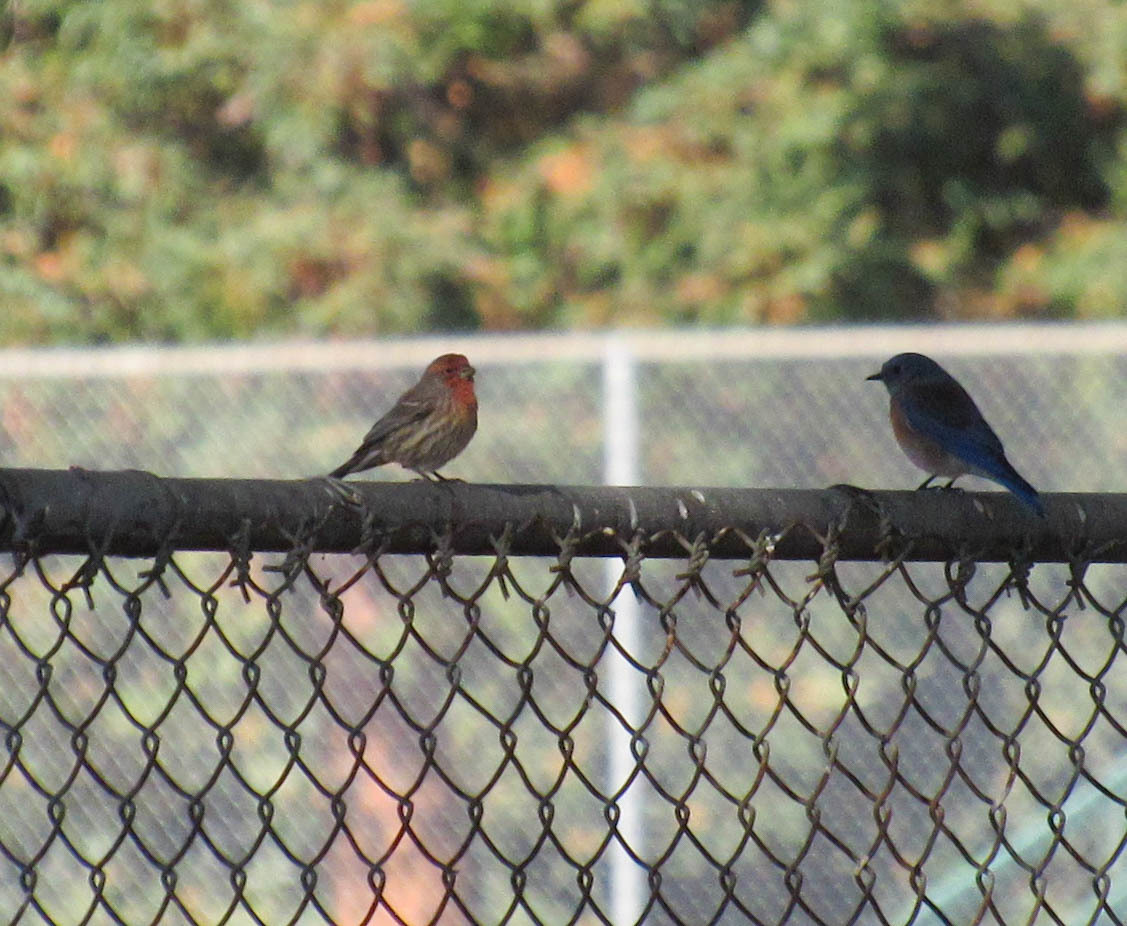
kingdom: Animalia
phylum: Chordata
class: Aves
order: Passeriformes
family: Fringillidae
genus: Haemorhous
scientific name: Haemorhous mexicanus
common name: House finch
